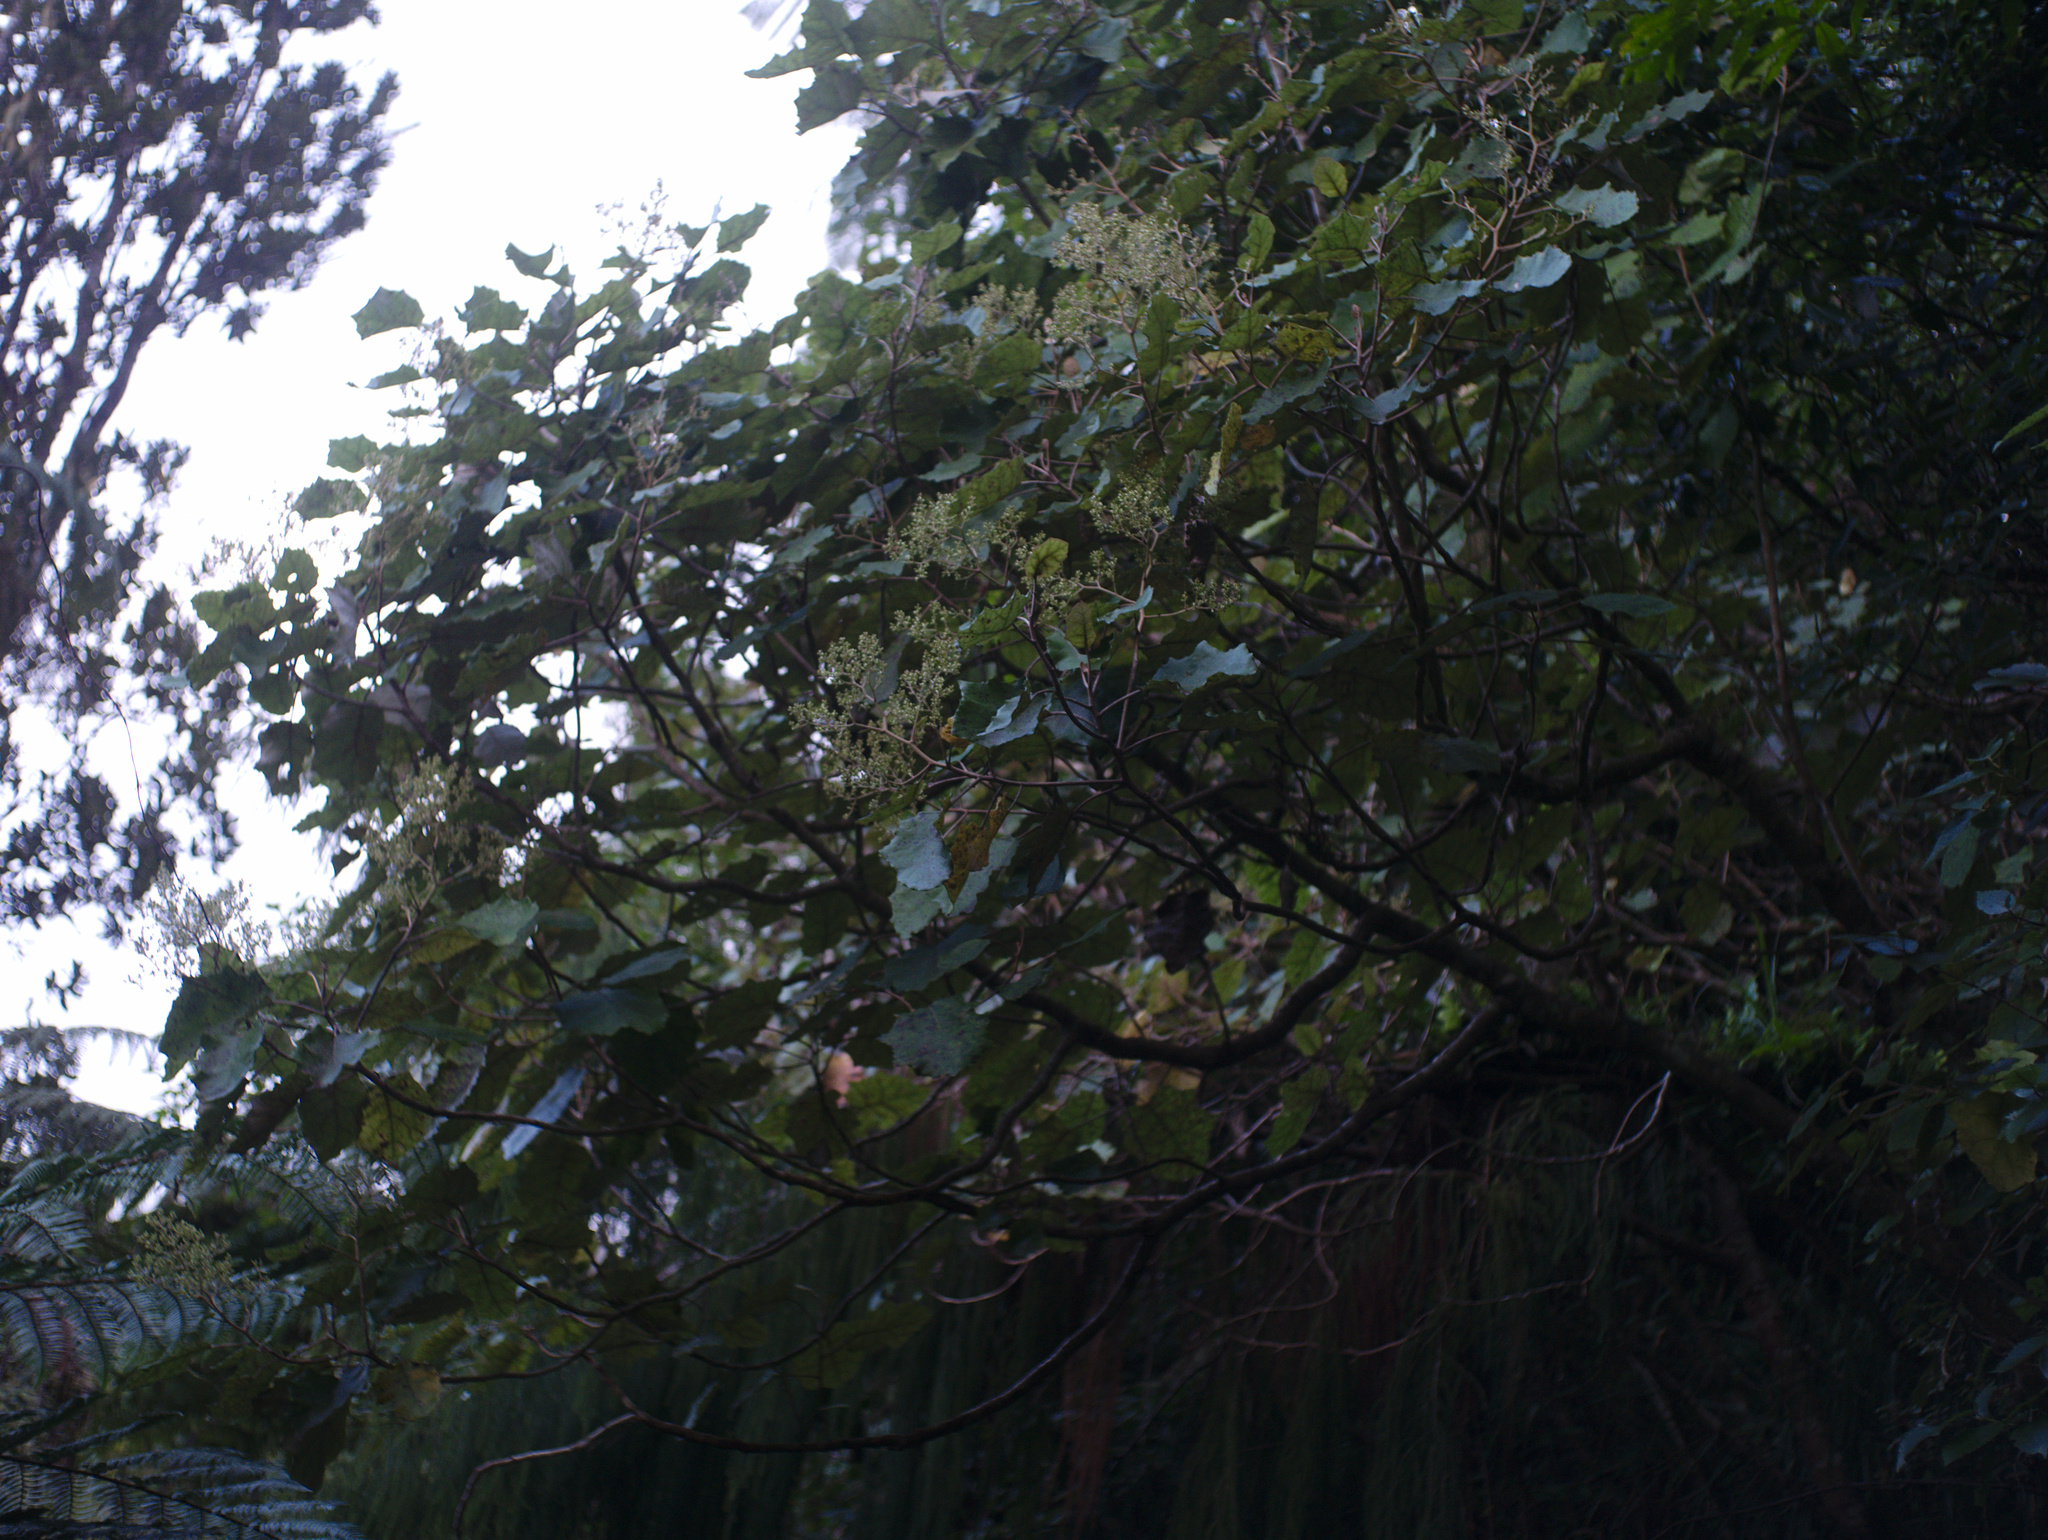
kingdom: Plantae
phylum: Tracheophyta
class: Magnoliopsida
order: Asterales
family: Asteraceae
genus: Brachyglottis
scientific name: Brachyglottis repanda
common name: Hedge ragwort
